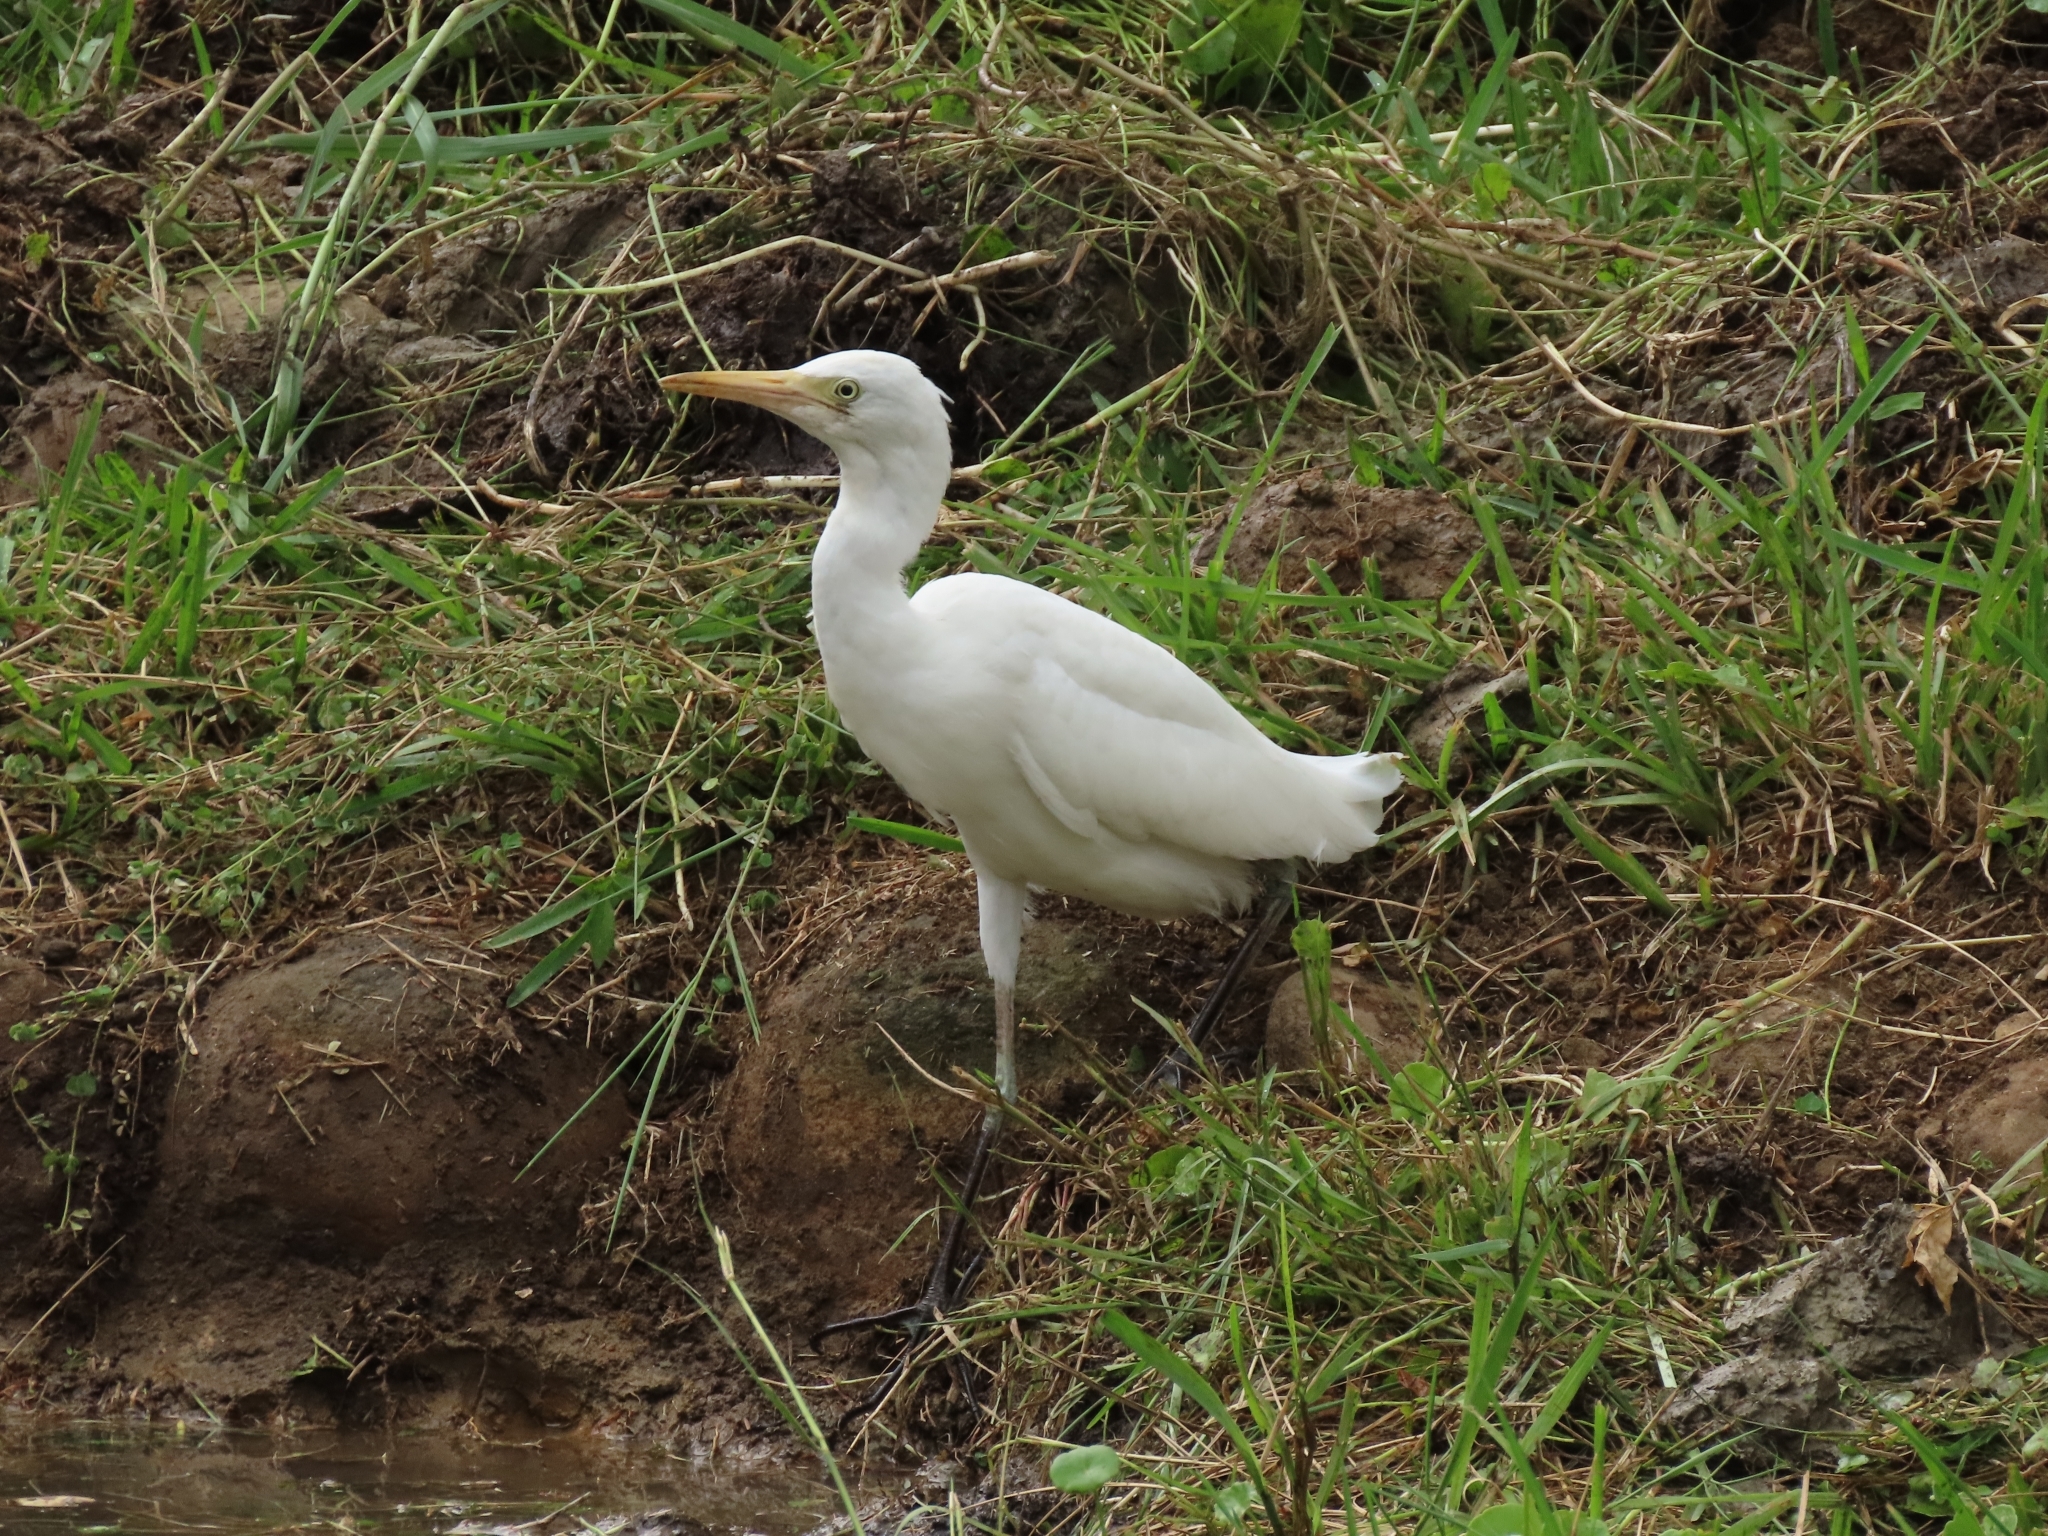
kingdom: Animalia
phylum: Chordata
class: Aves
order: Pelecaniformes
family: Ardeidae
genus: Bubulcus
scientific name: Bubulcus coromandus
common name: Eastern cattle egret
